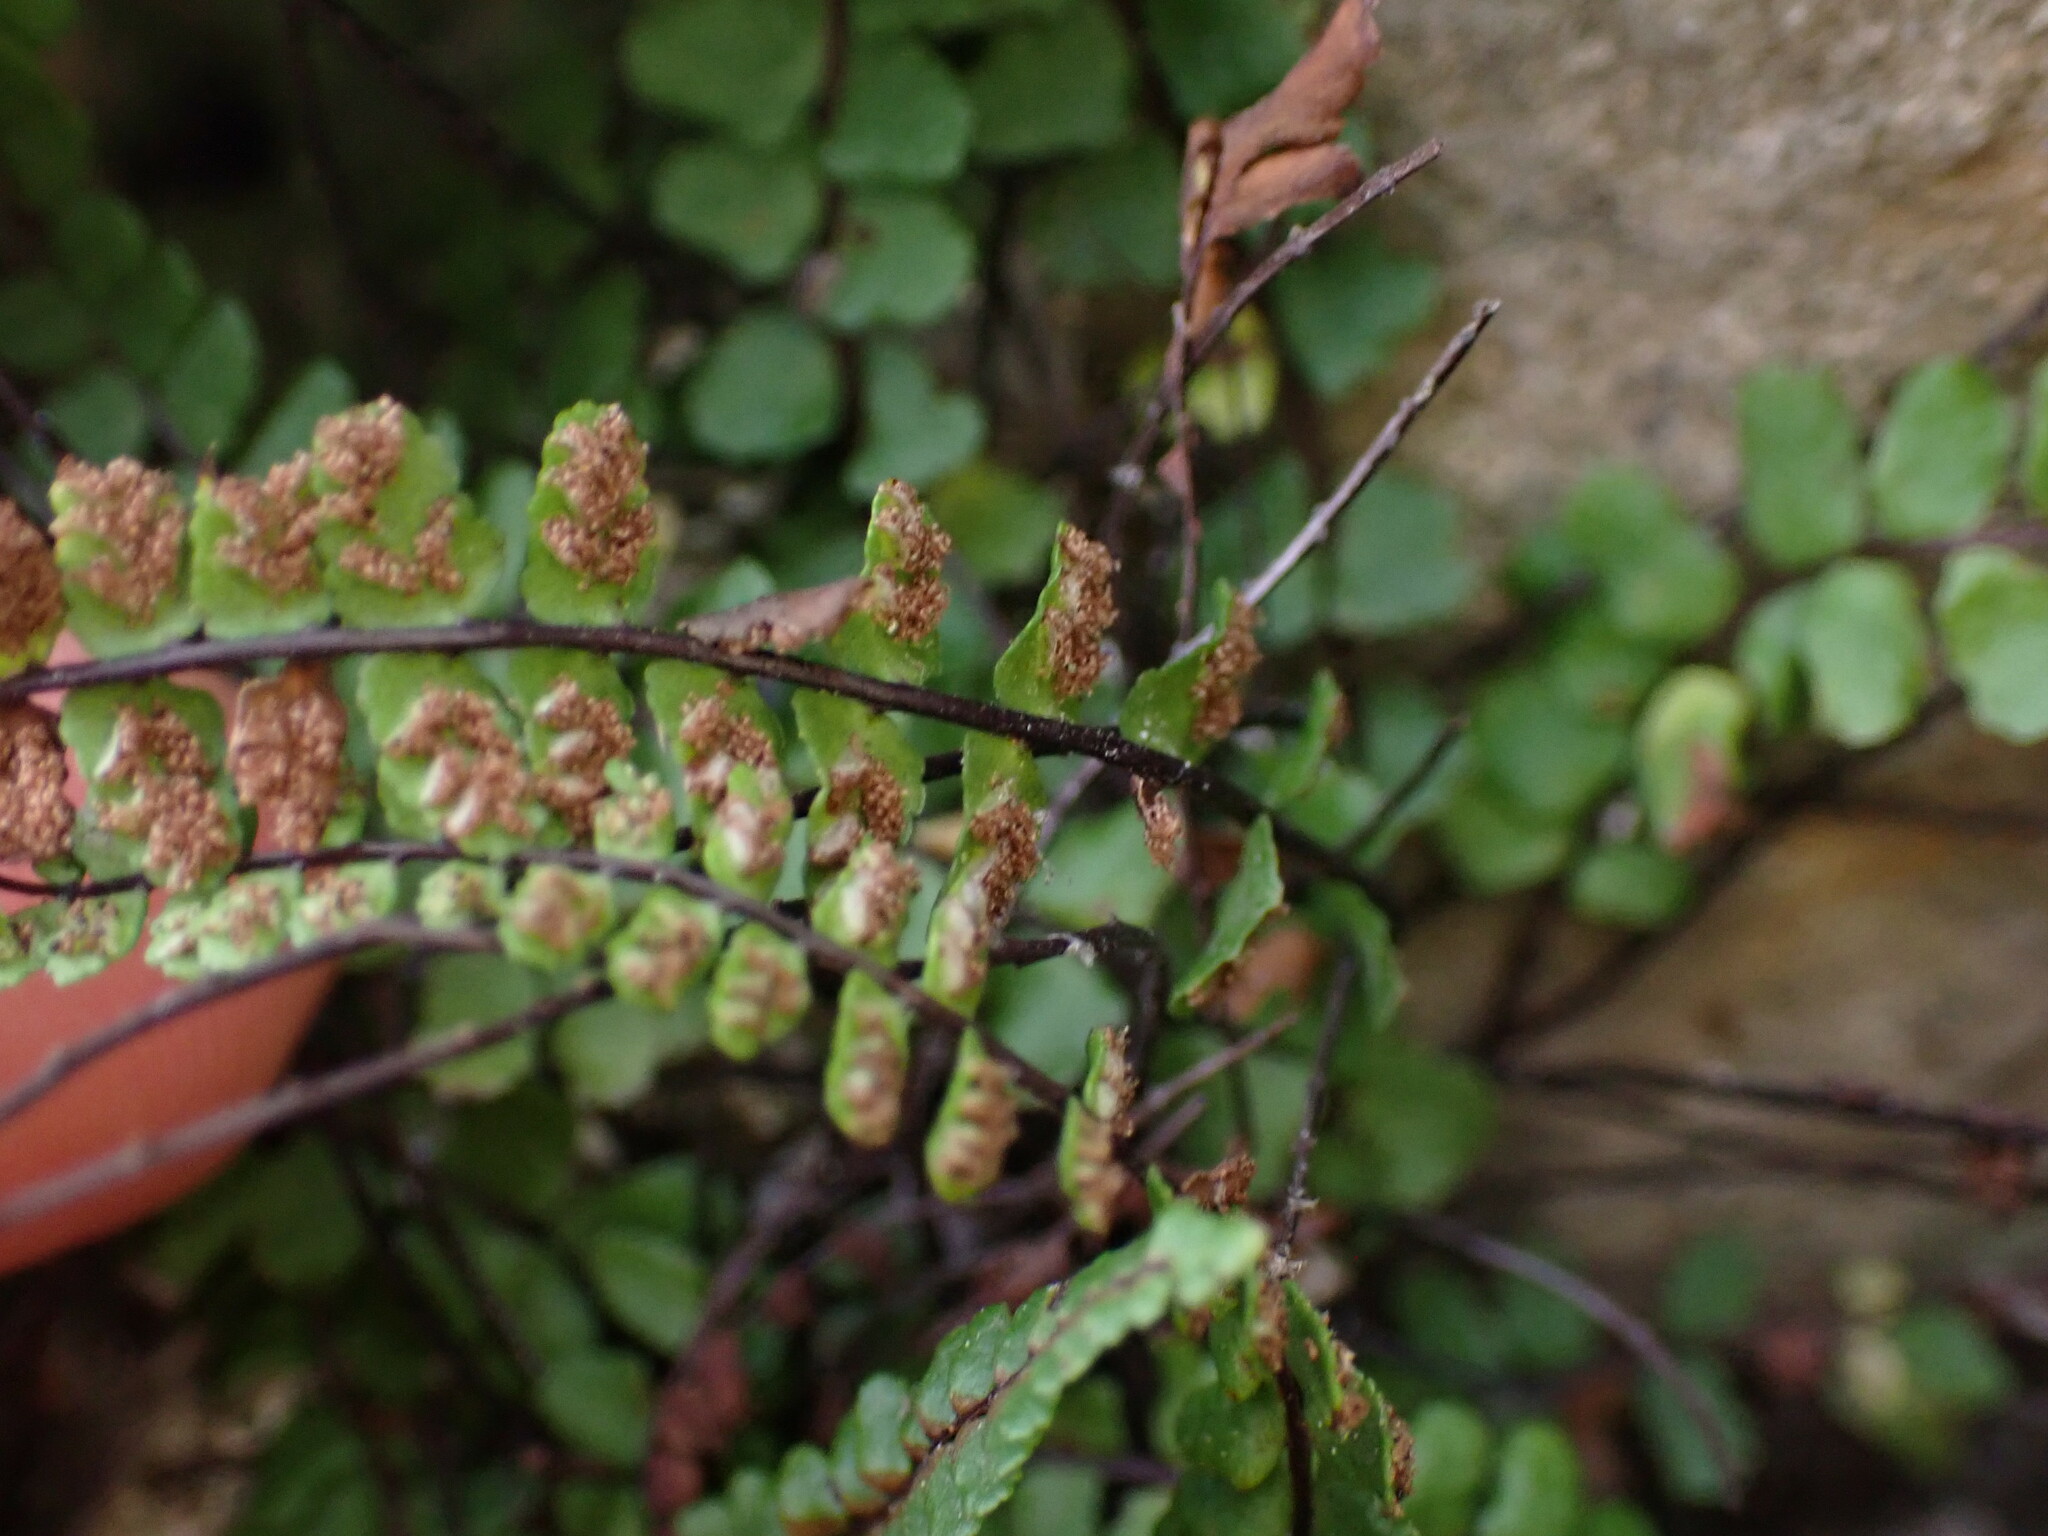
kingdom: Plantae
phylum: Tracheophyta
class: Polypodiopsida
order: Polypodiales
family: Aspleniaceae
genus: Asplenium
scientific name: Asplenium trichomanes
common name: Maidenhair spleenwort
